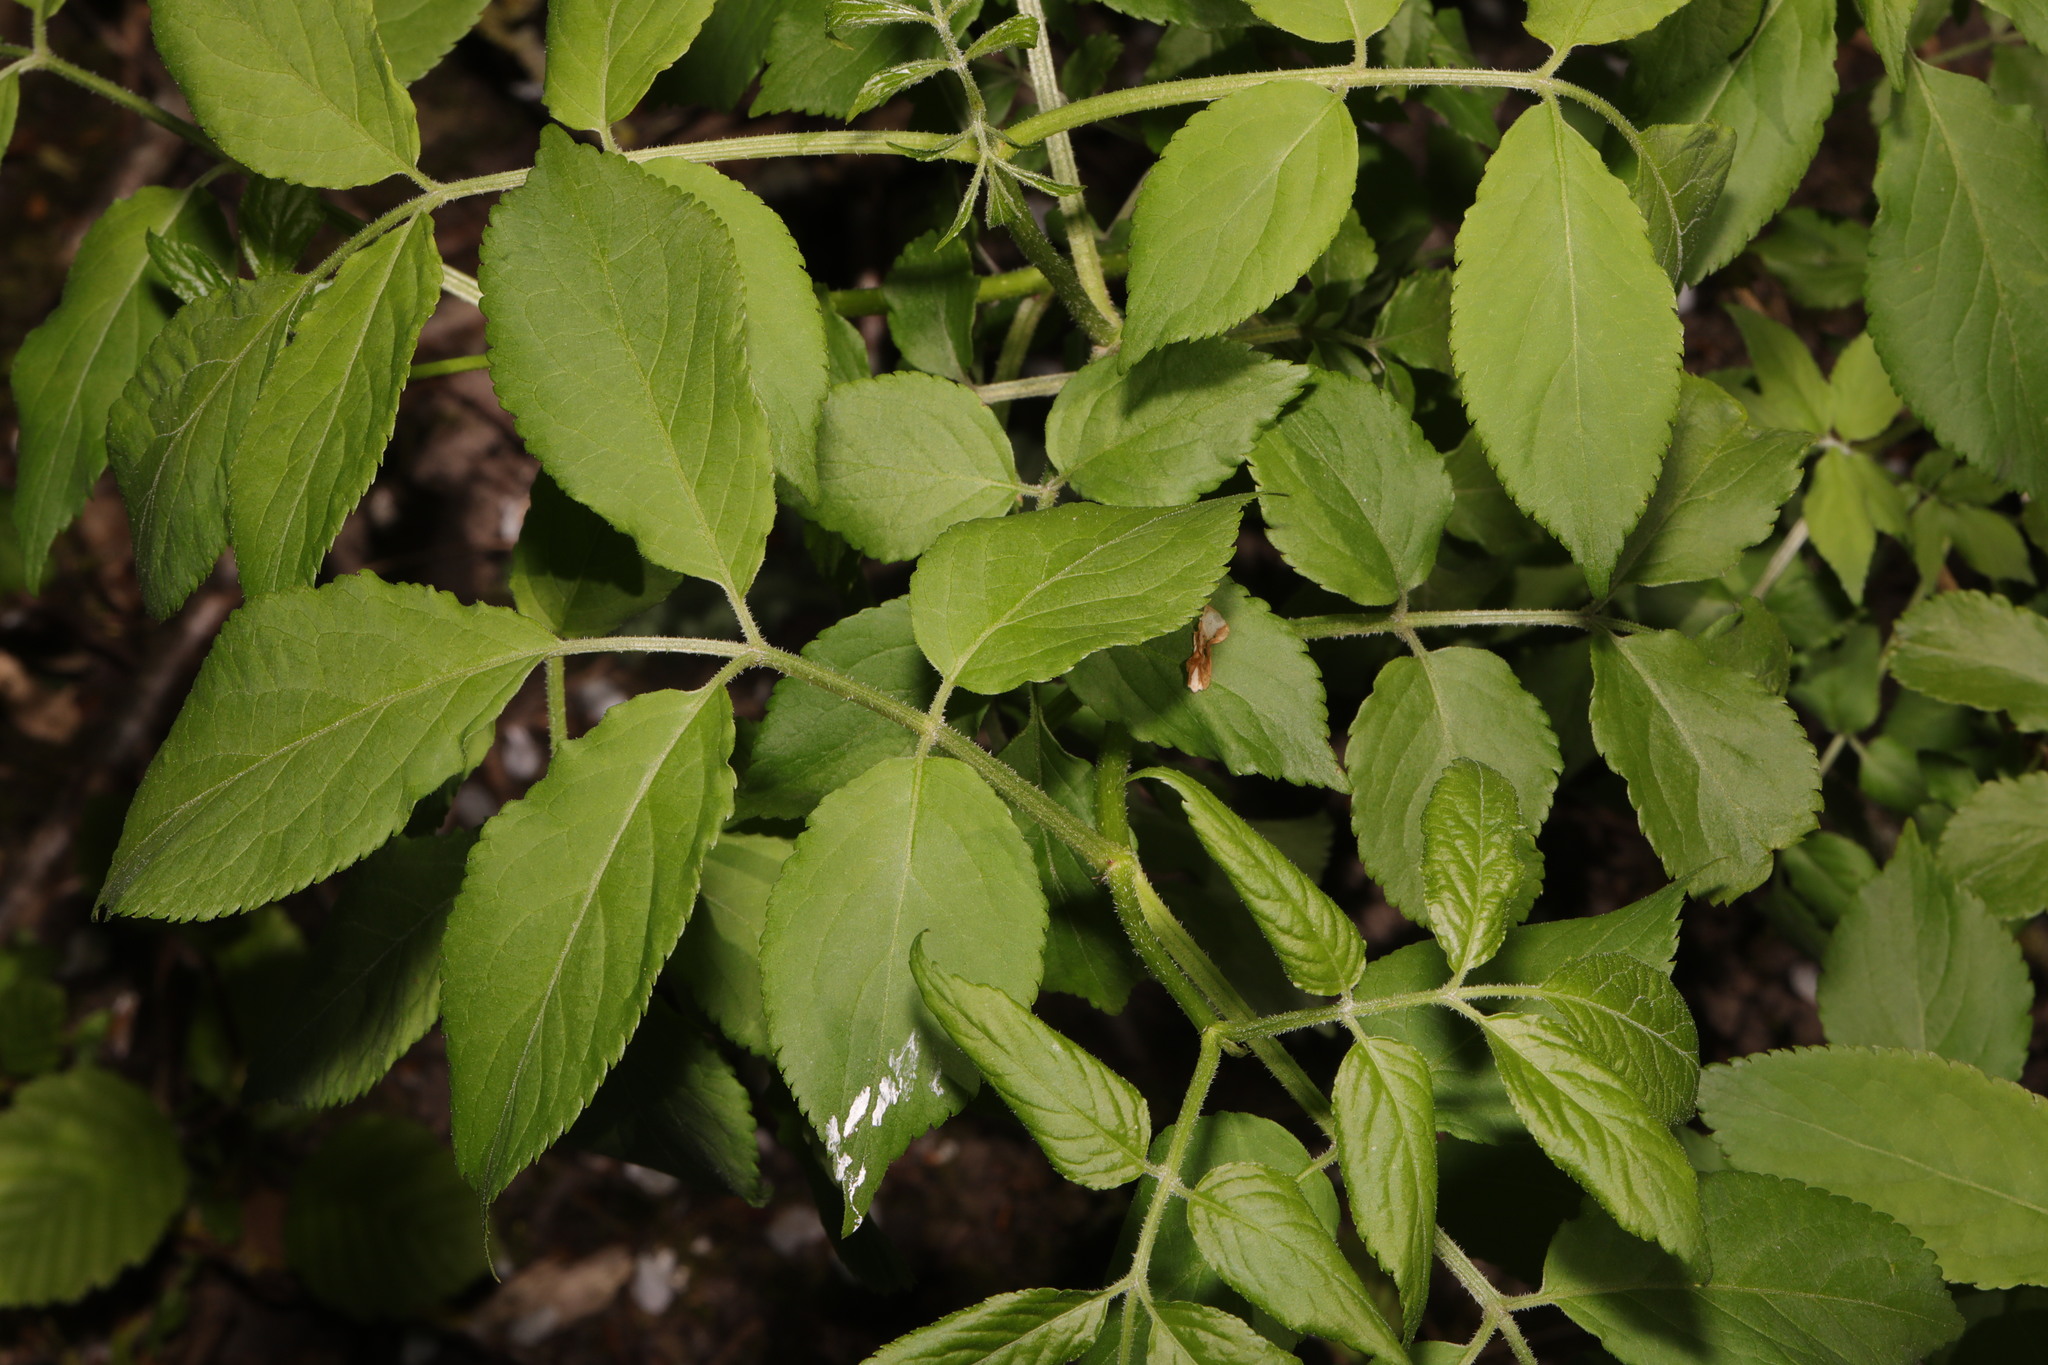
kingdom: Plantae
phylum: Tracheophyta
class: Magnoliopsida
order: Dipsacales
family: Viburnaceae
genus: Sambucus
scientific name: Sambucus nigra
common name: Elder
